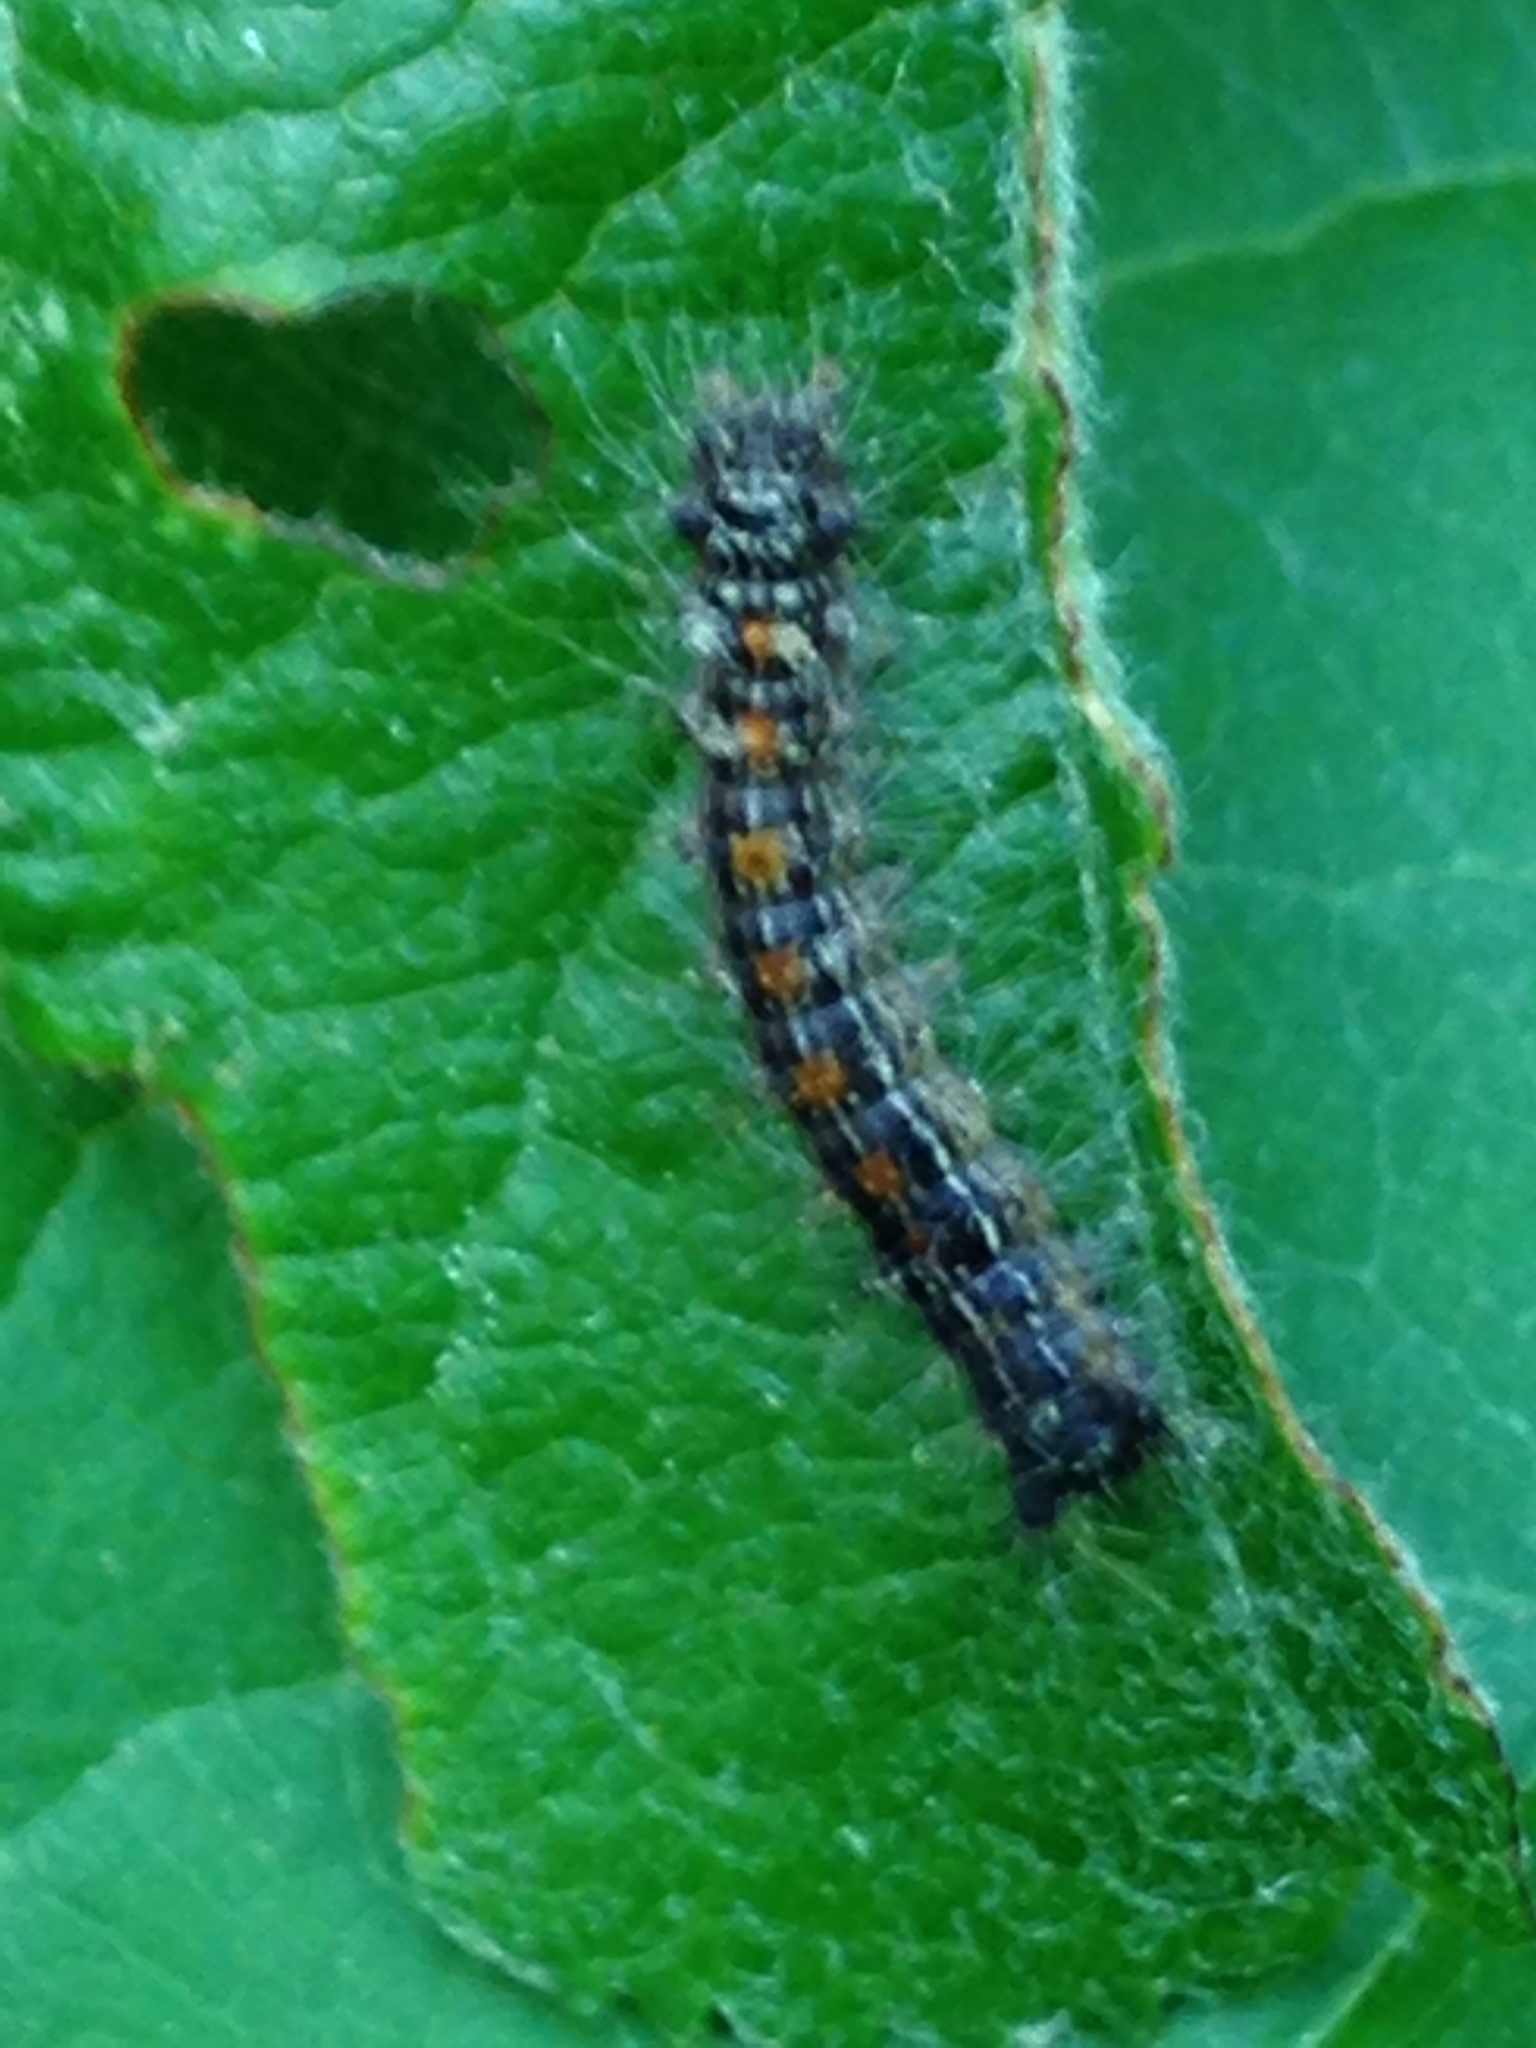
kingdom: Animalia
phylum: Arthropoda
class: Insecta
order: Lepidoptera
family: Erebidae
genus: Lymantria
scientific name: Lymantria dispar
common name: Gypsy moth
